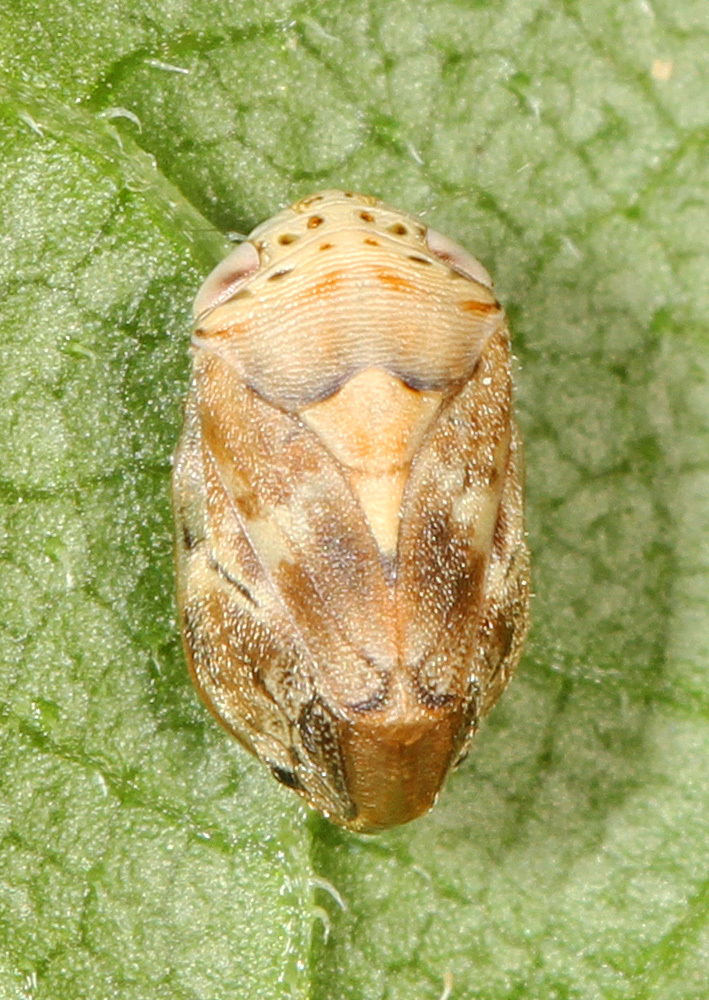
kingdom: Animalia
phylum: Arthropoda
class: Insecta
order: Hemiptera
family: Clastopteridae
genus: Clastoptera
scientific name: Clastoptera laevigata
